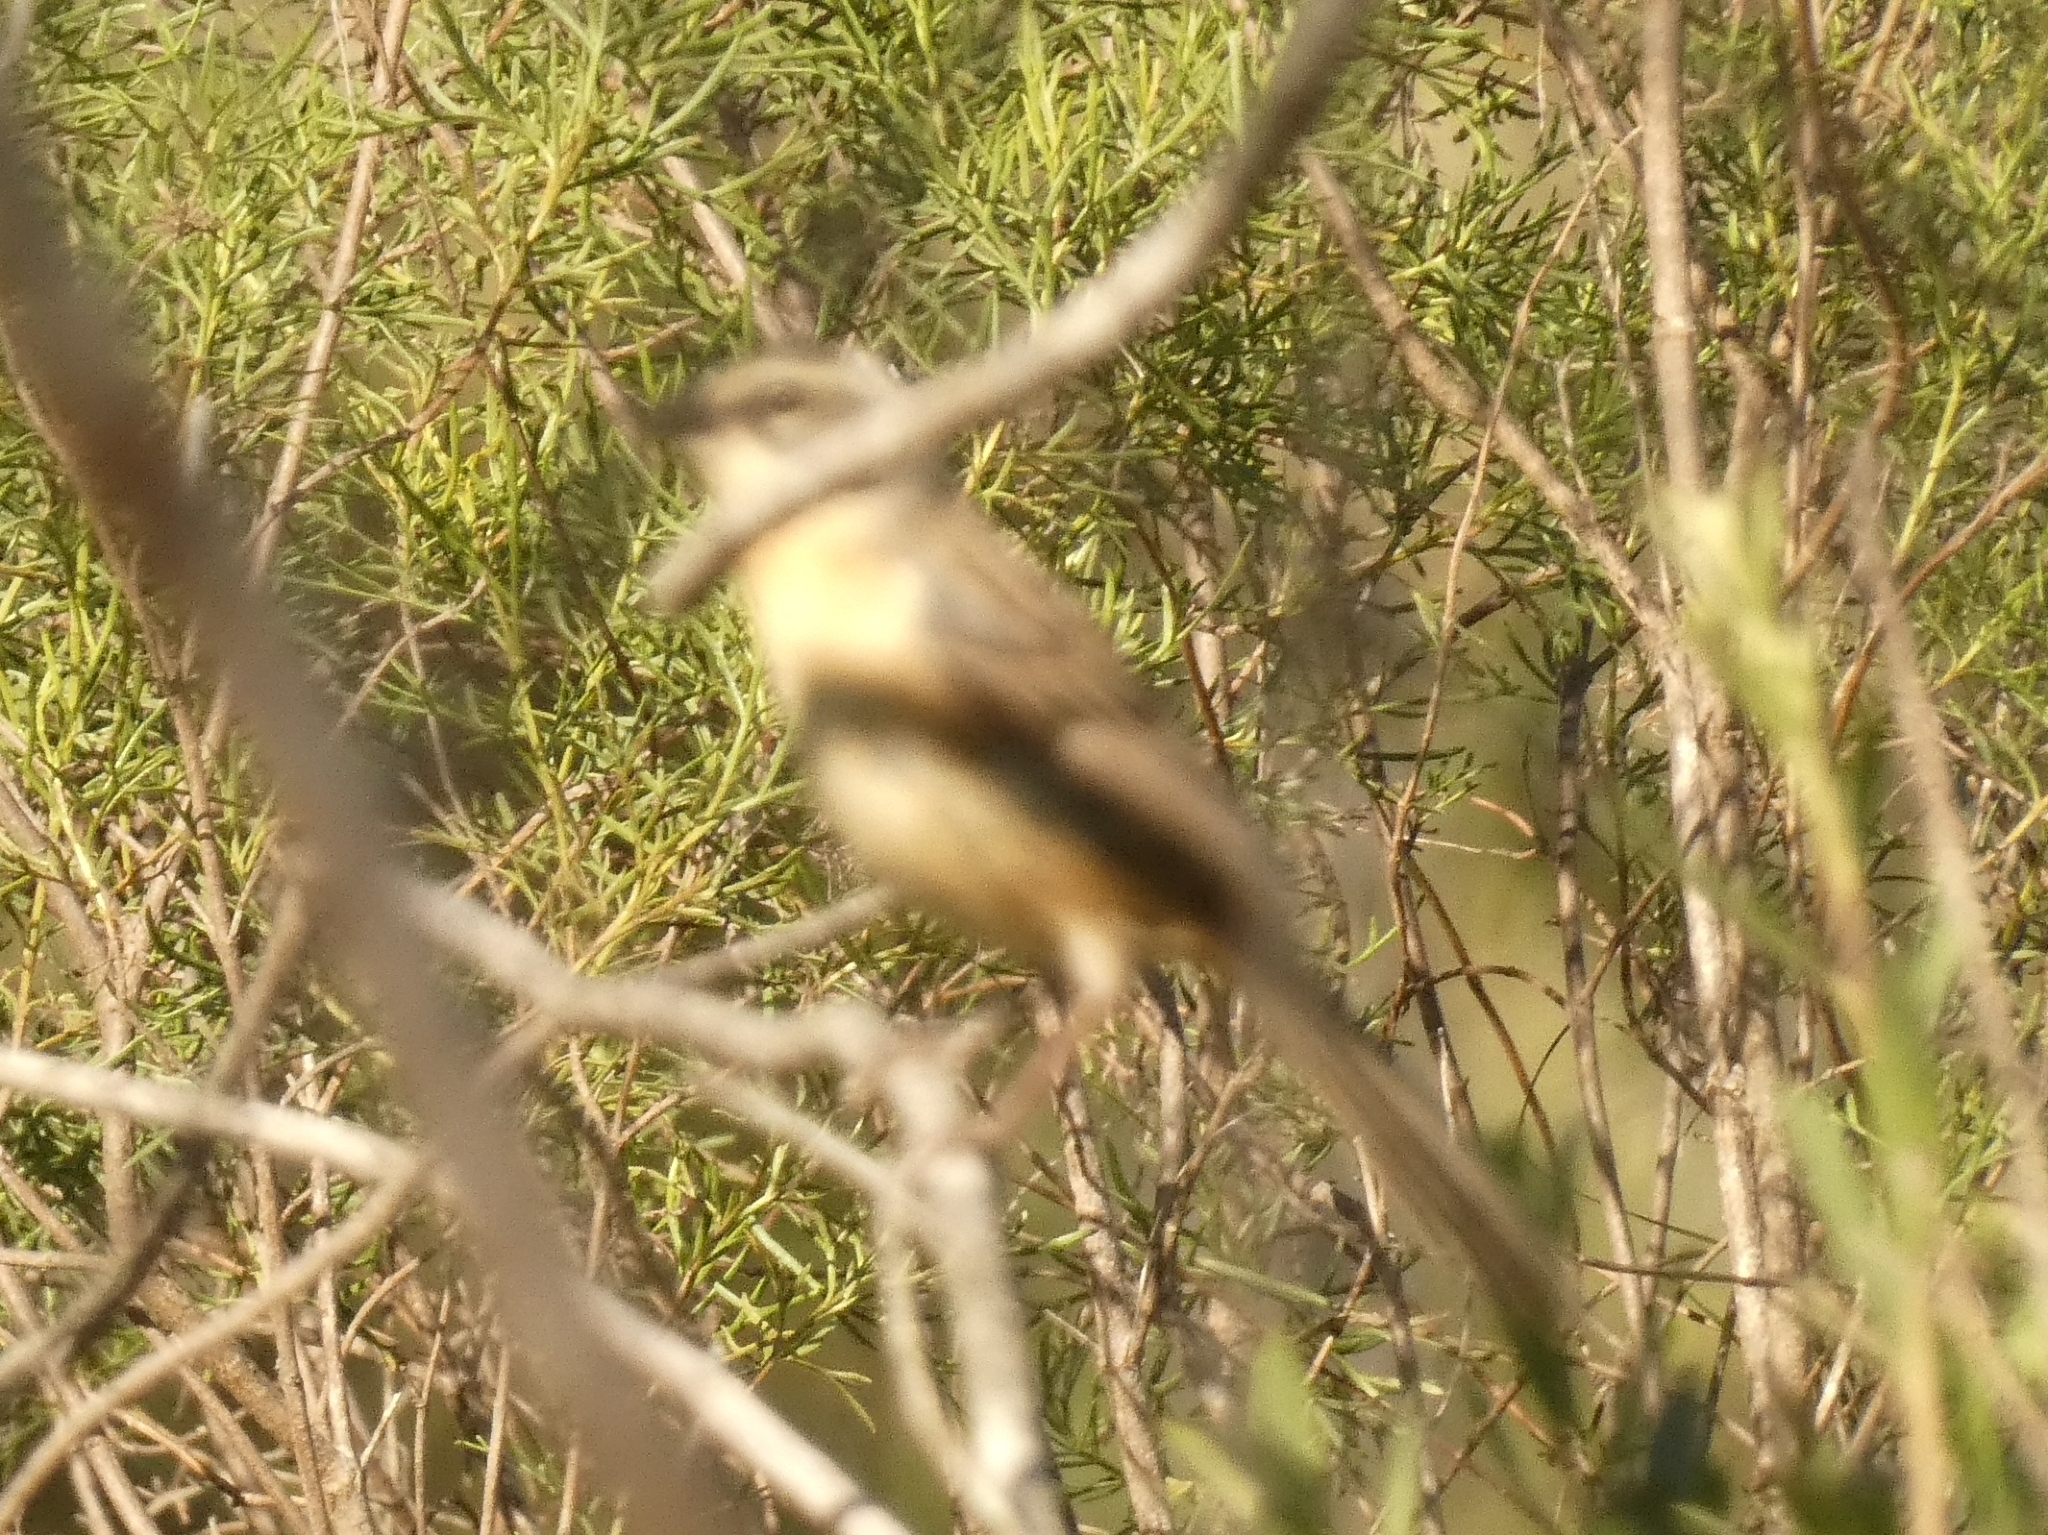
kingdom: Animalia
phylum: Chordata
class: Aves
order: Passeriformes
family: Thraupidae
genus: Donacospiza
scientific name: Donacospiza albifrons
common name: Long-tailed reed finch
